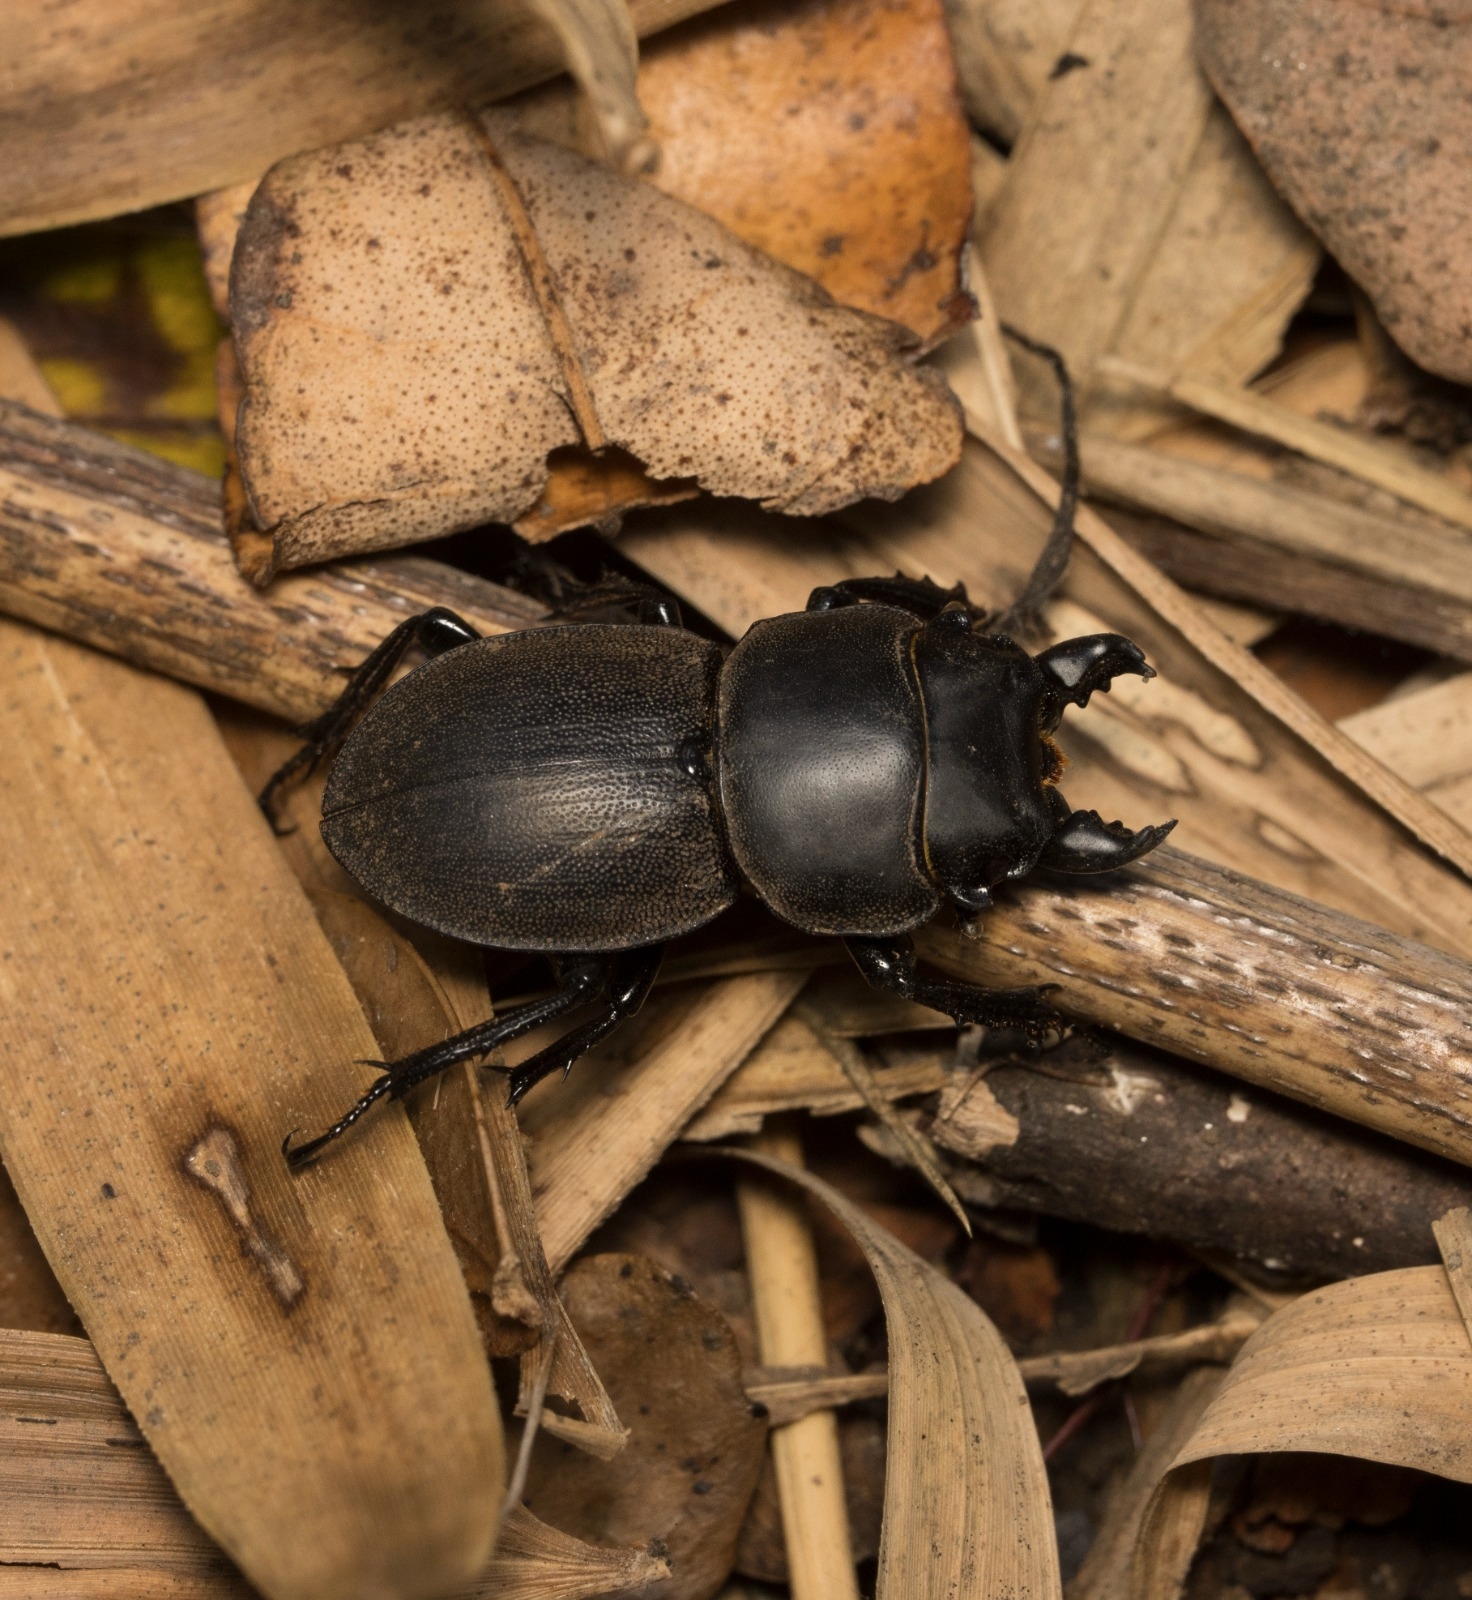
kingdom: Animalia
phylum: Arthropoda
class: Insecta
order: Coleoptera
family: Lucanidae
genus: Apterodorcus
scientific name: Apterodorcus bacchus
